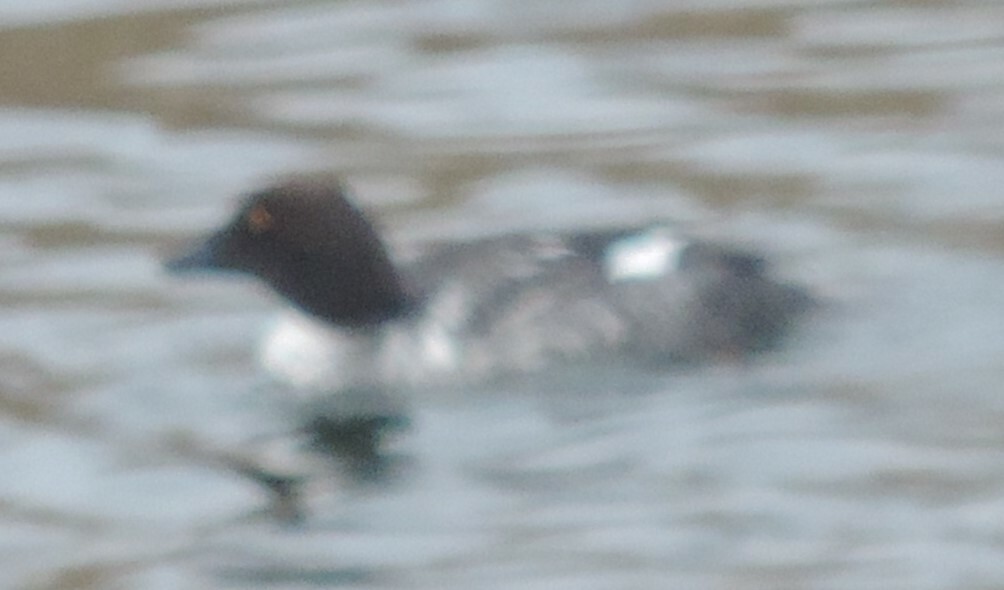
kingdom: Animalia
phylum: Chordata
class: Aves
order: Anseriformes
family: Anatidae
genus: Bucephala
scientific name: Bucephala clangula
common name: Common goldeneye
